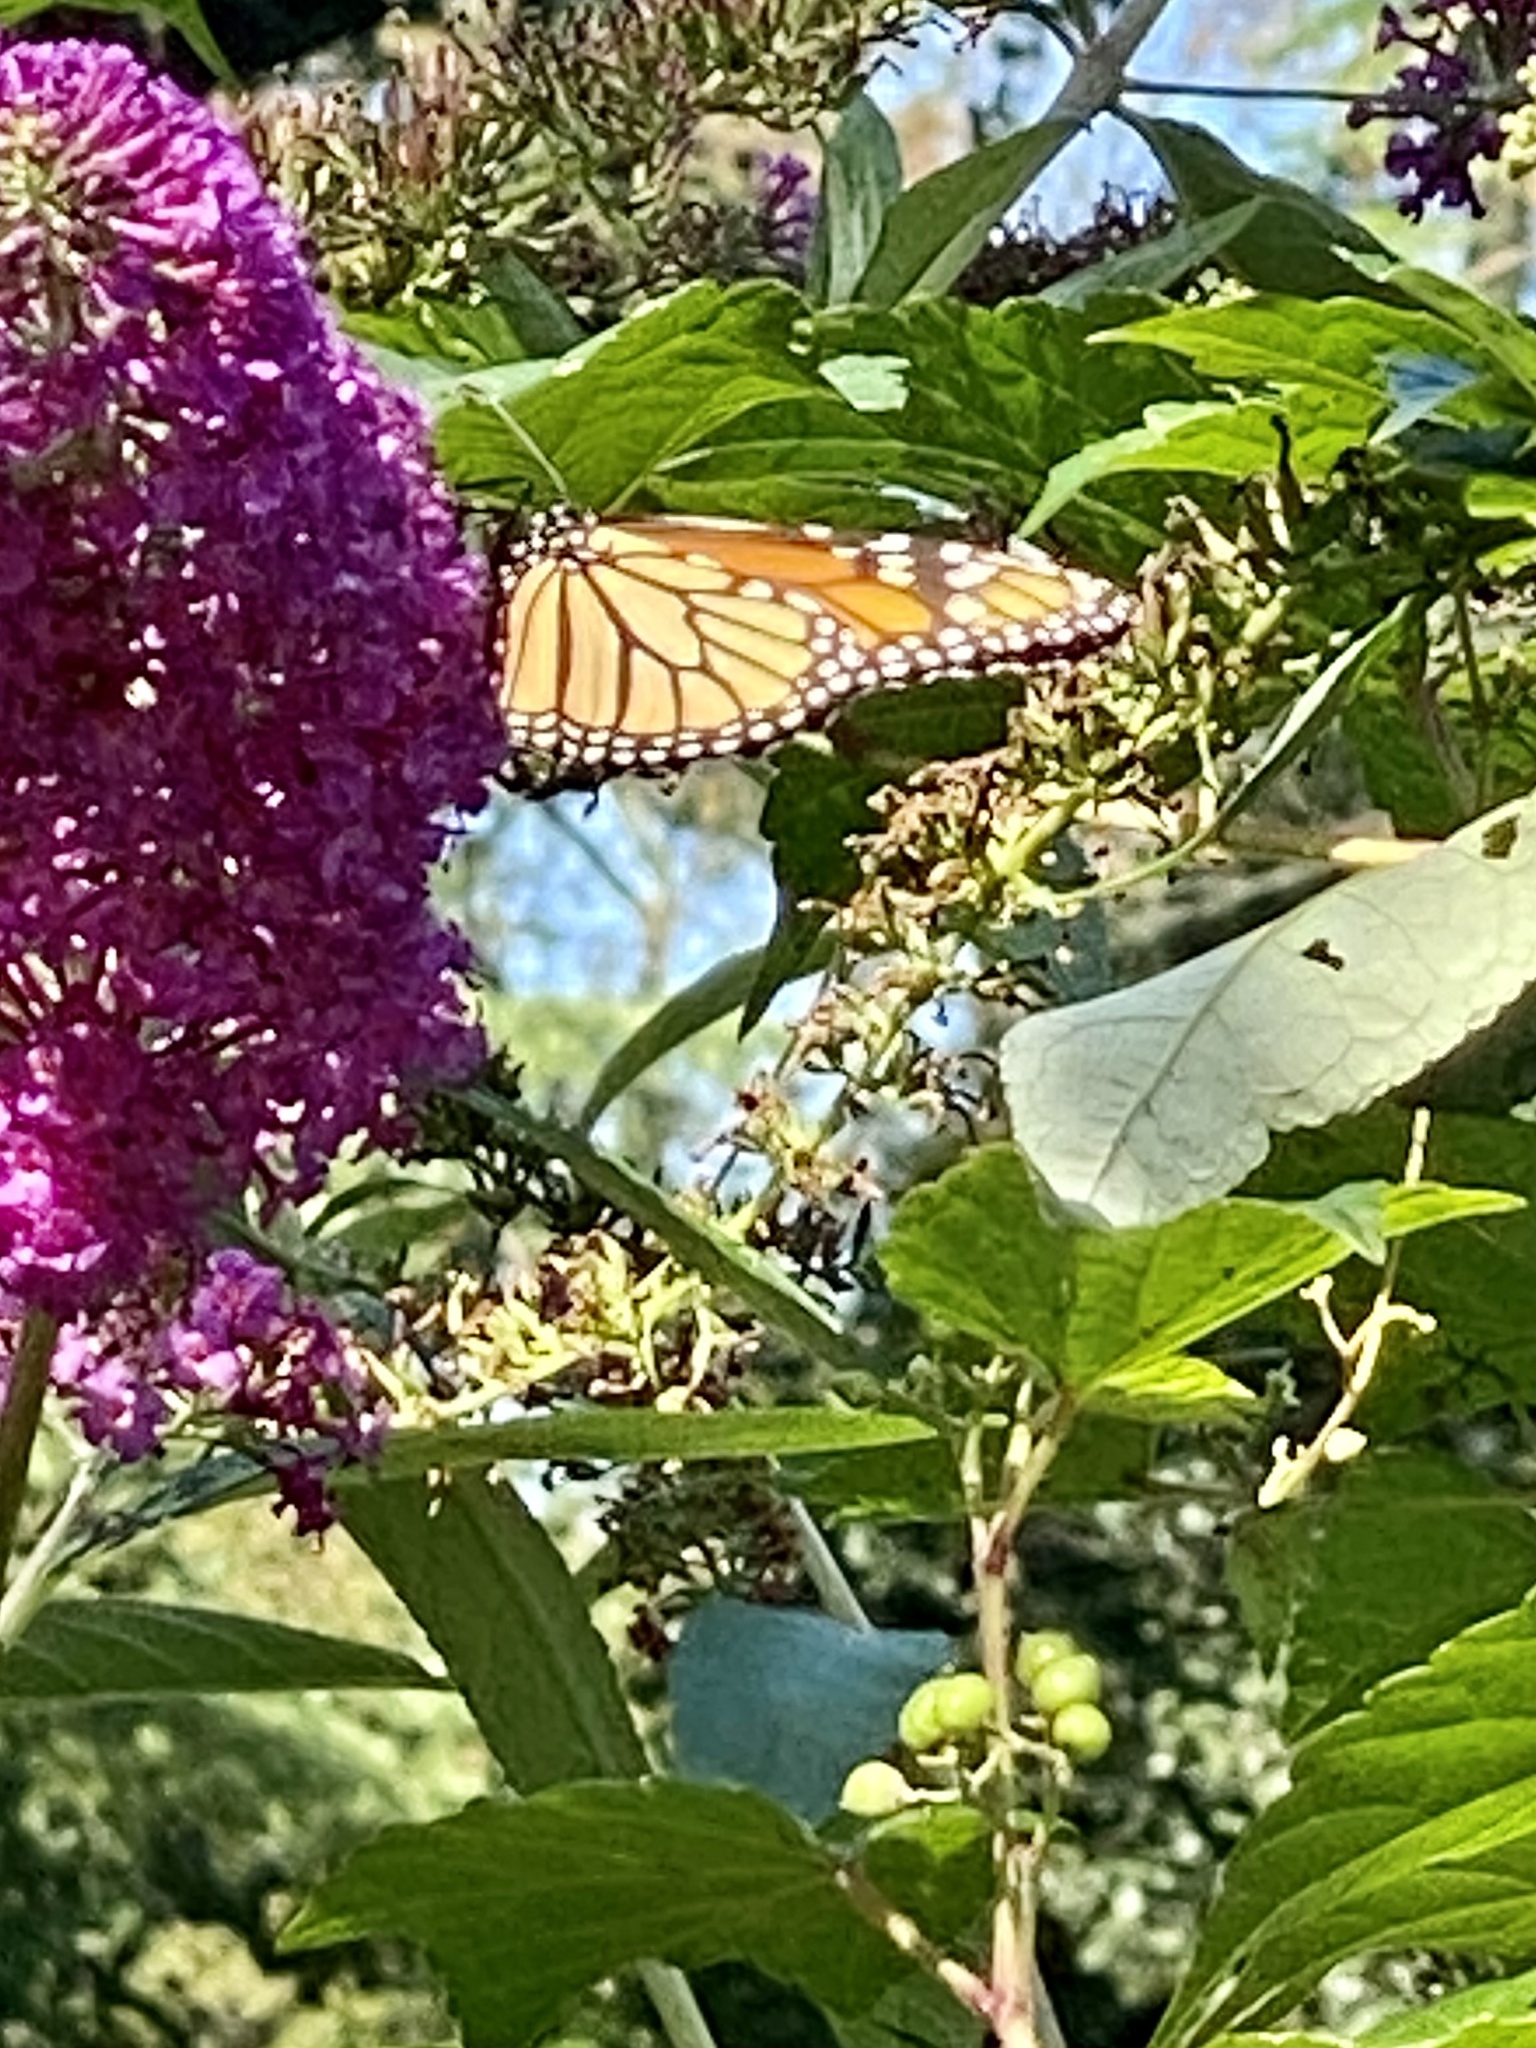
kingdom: Animalia
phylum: Arthropoda
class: Insecta
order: Lepidoptera
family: Nymphalidae
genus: Danaus
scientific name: Danaus plexippus
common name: Monarch
